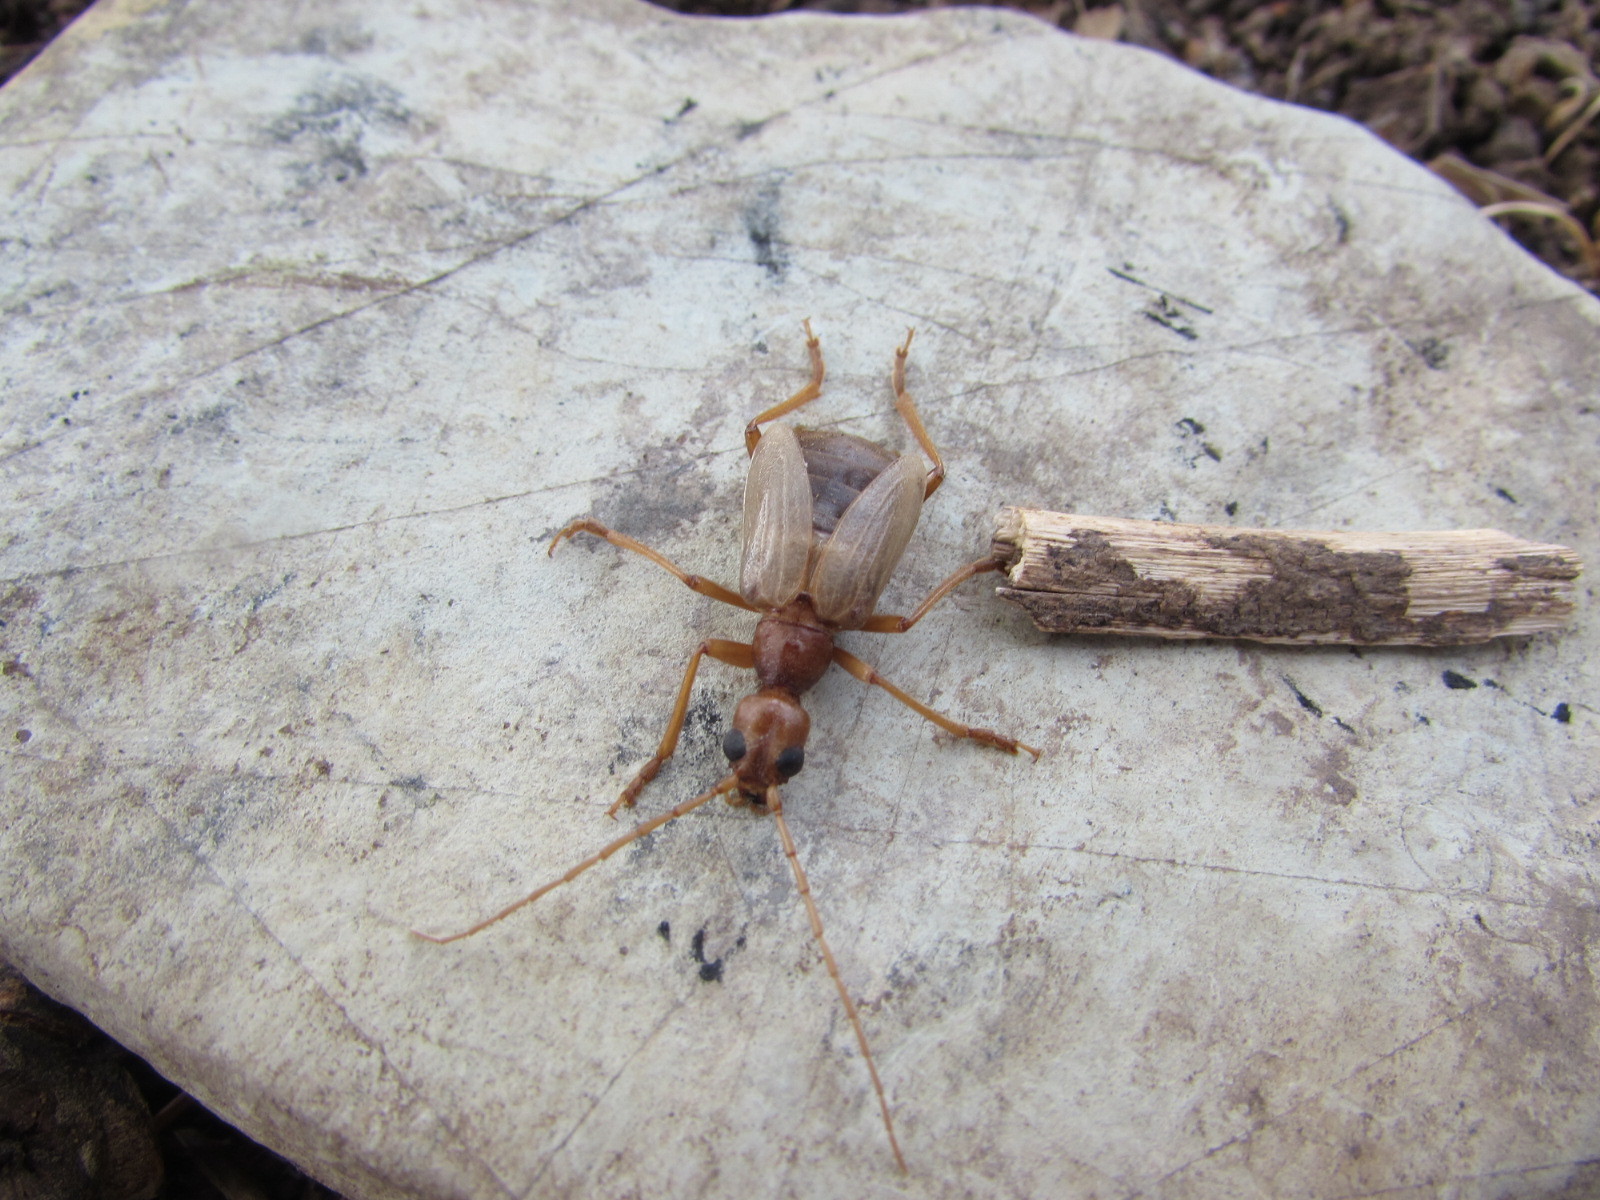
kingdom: Animalia
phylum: Arthropoda
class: Insecta
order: Coleoptera
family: Cerambycidae
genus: Vesperus
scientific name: Vesperus luridus
